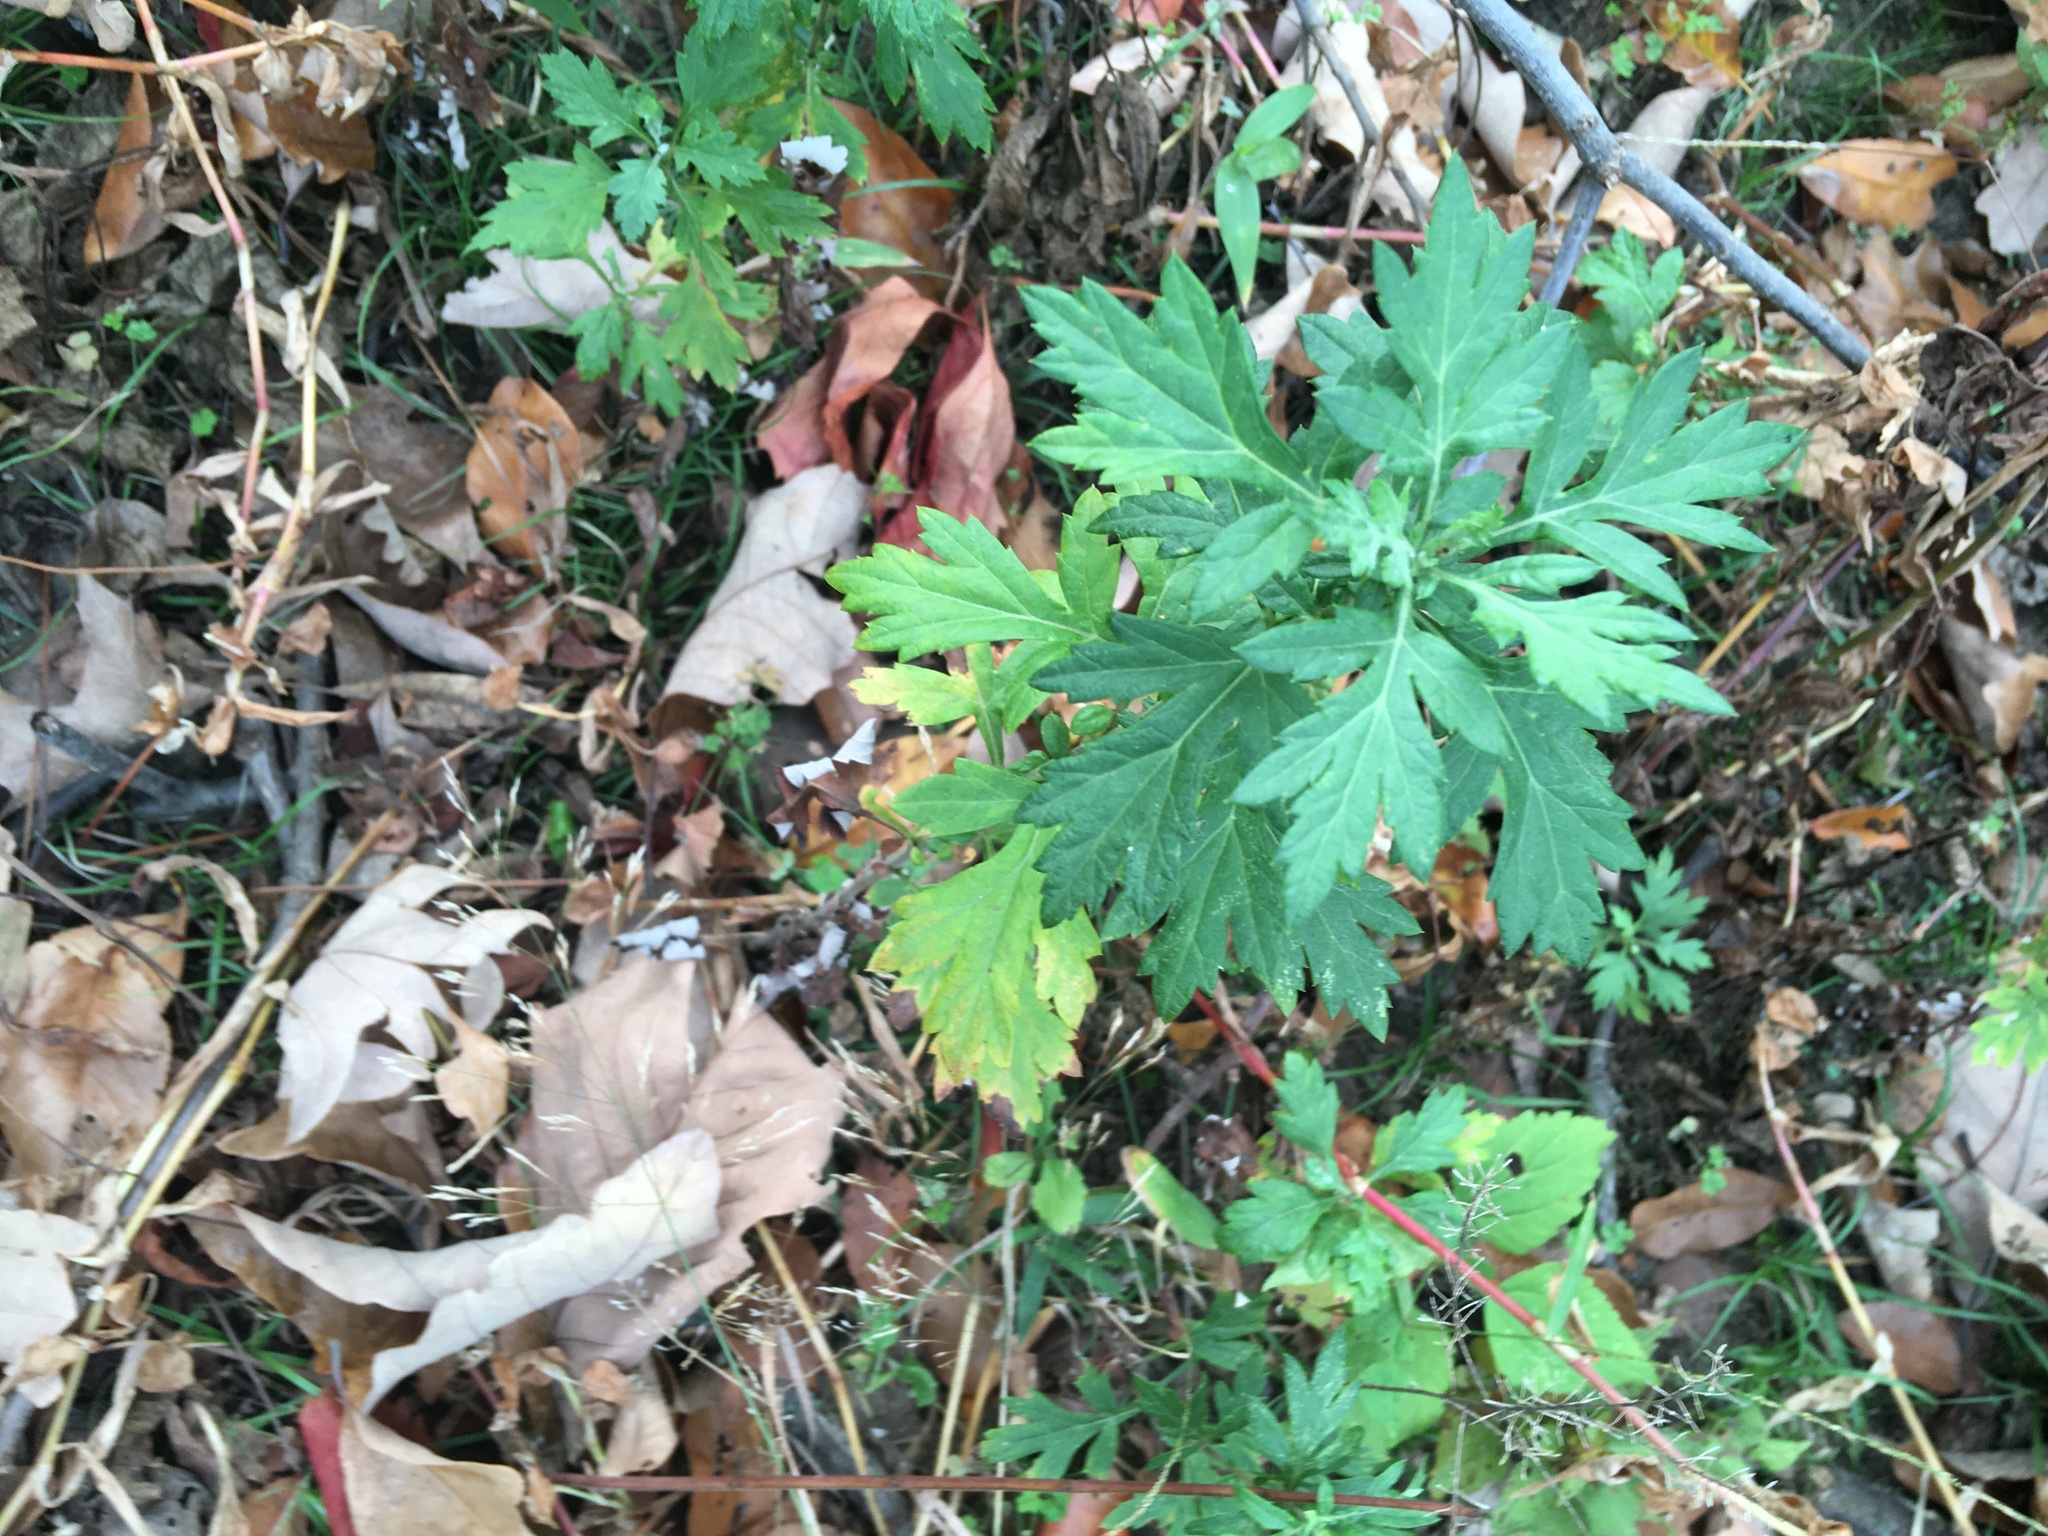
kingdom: Plantae
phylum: Tracheophyta
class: Magnoliopsida
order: Asterales
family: Asteraceae
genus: Artemisia
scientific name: Artemisia vulgaris
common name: Mugwort
